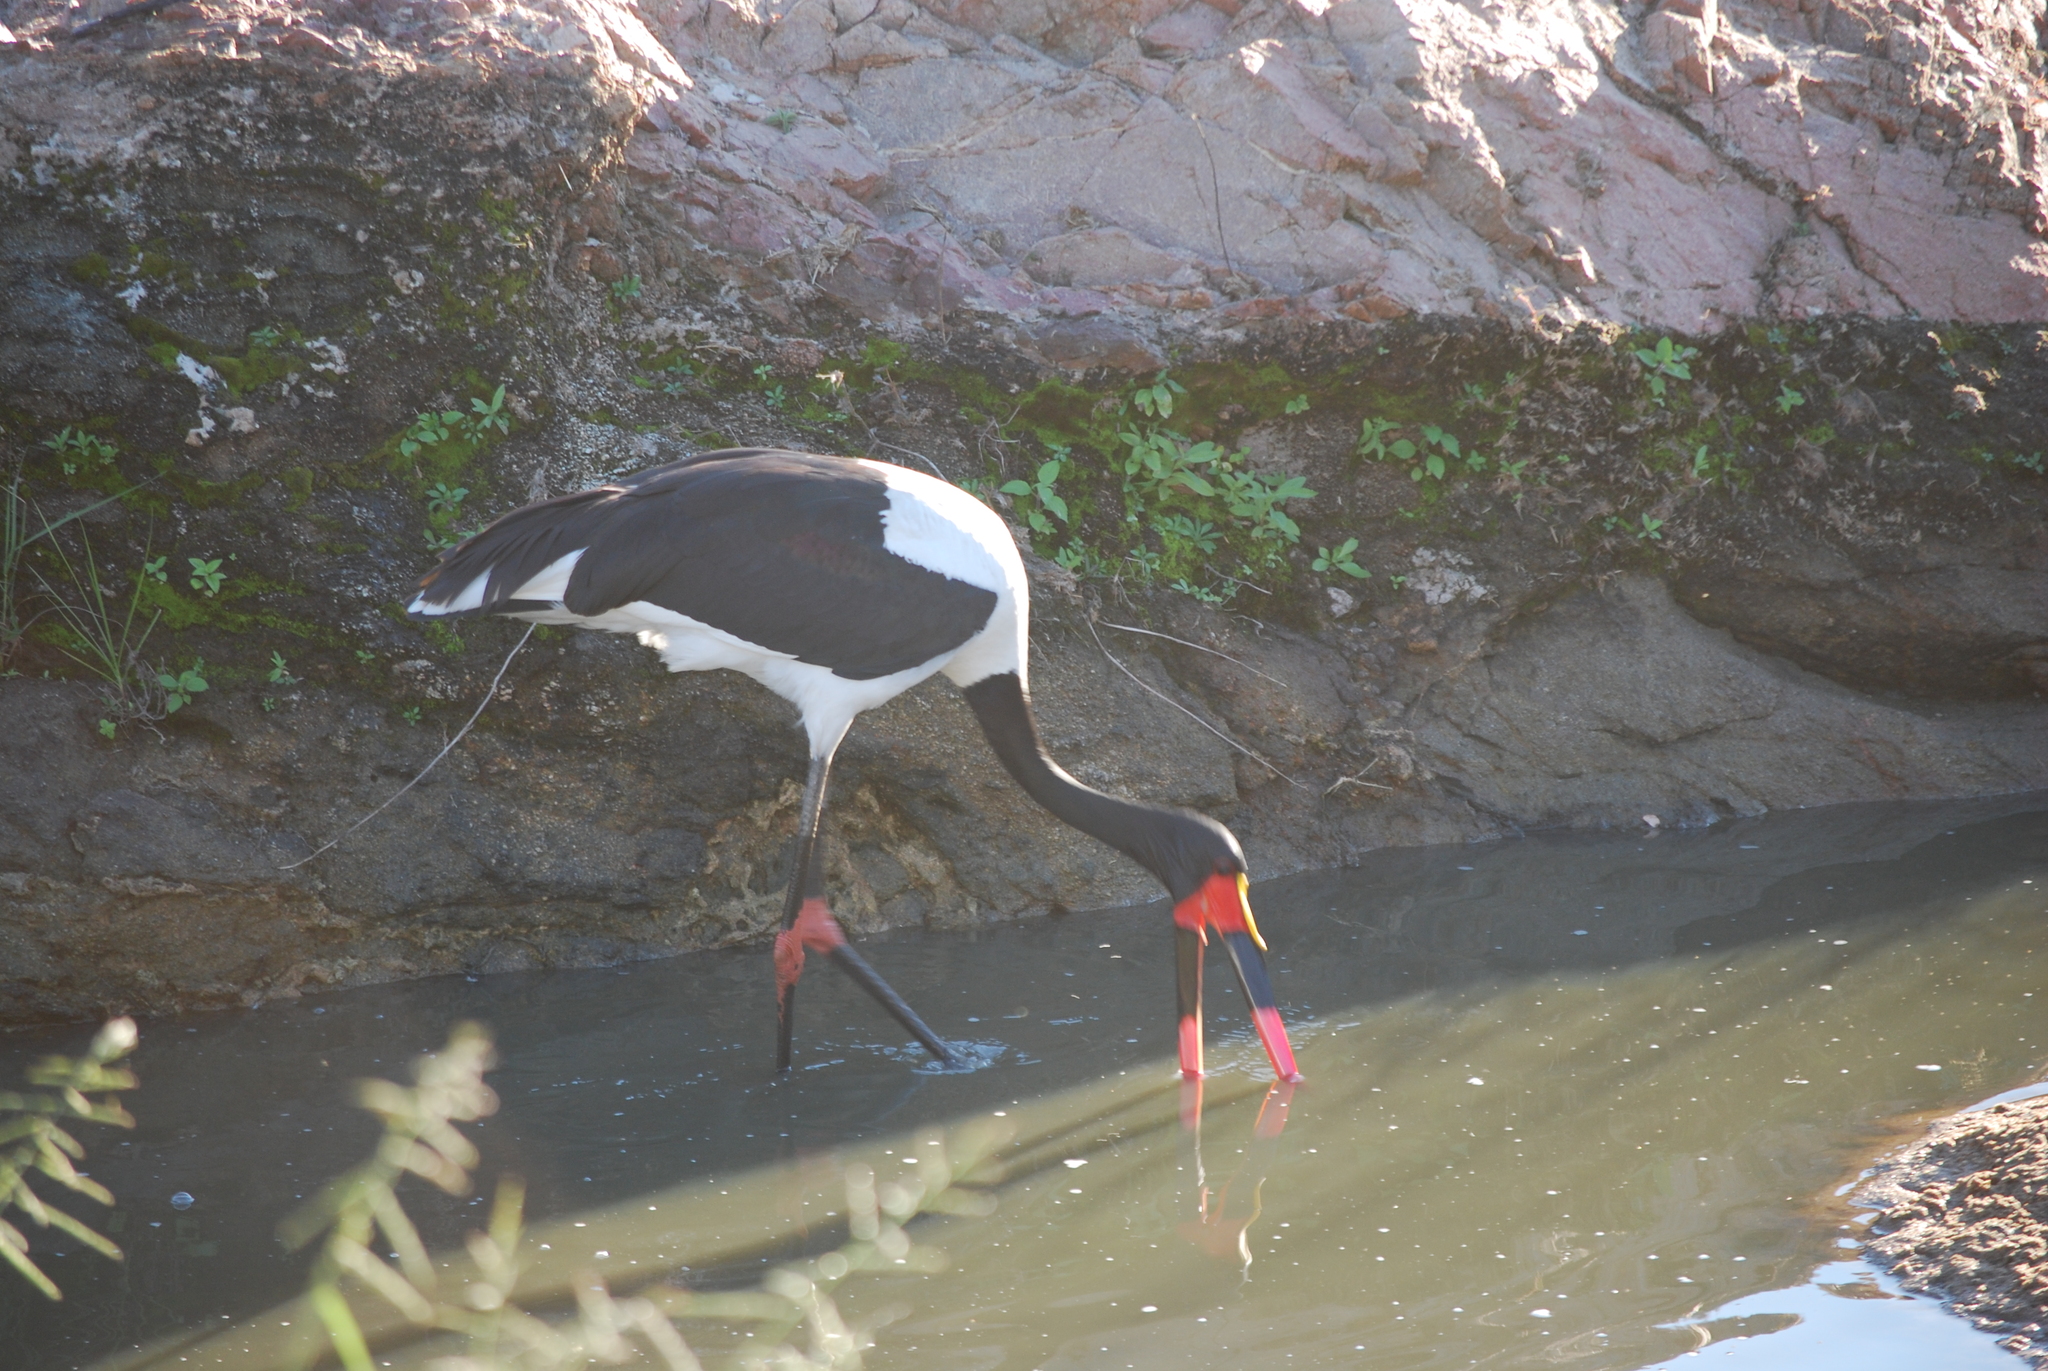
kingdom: Animalia
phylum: Chordata
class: Aves
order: Ciconiiformes
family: Ciconiidae
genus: Ephippiorhynchus
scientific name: Ephippiorhynchus senegalensis
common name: Saddle-billed stork
